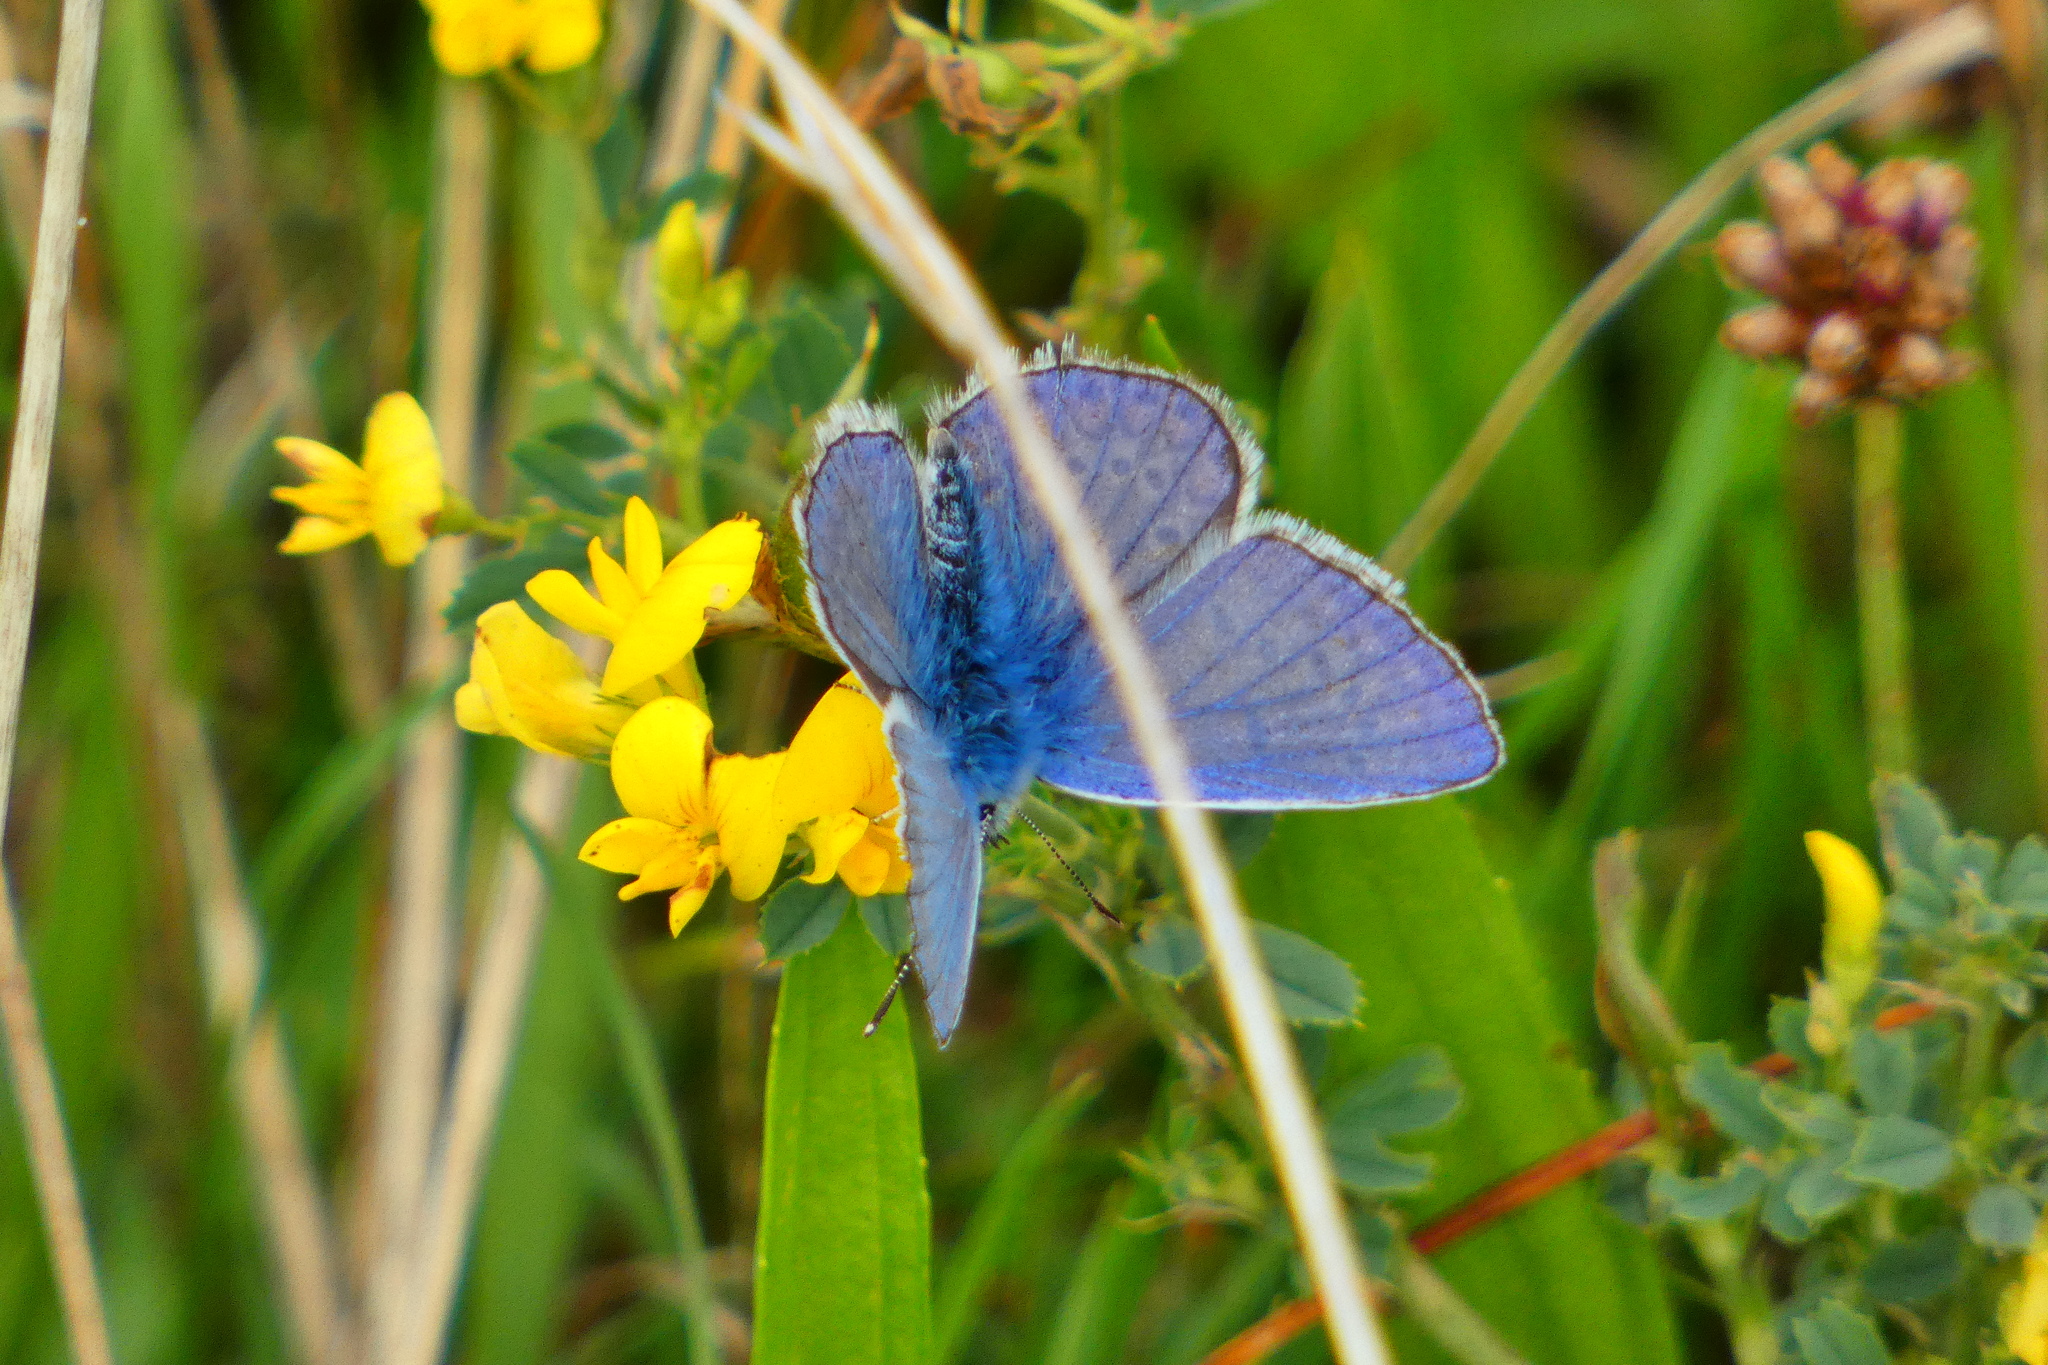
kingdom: Animalia
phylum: Arthropoda
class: Insecta
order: Lepidoptera
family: Lycaenidae
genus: Polyommatus
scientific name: Polyommatus icarus
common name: Common blue
